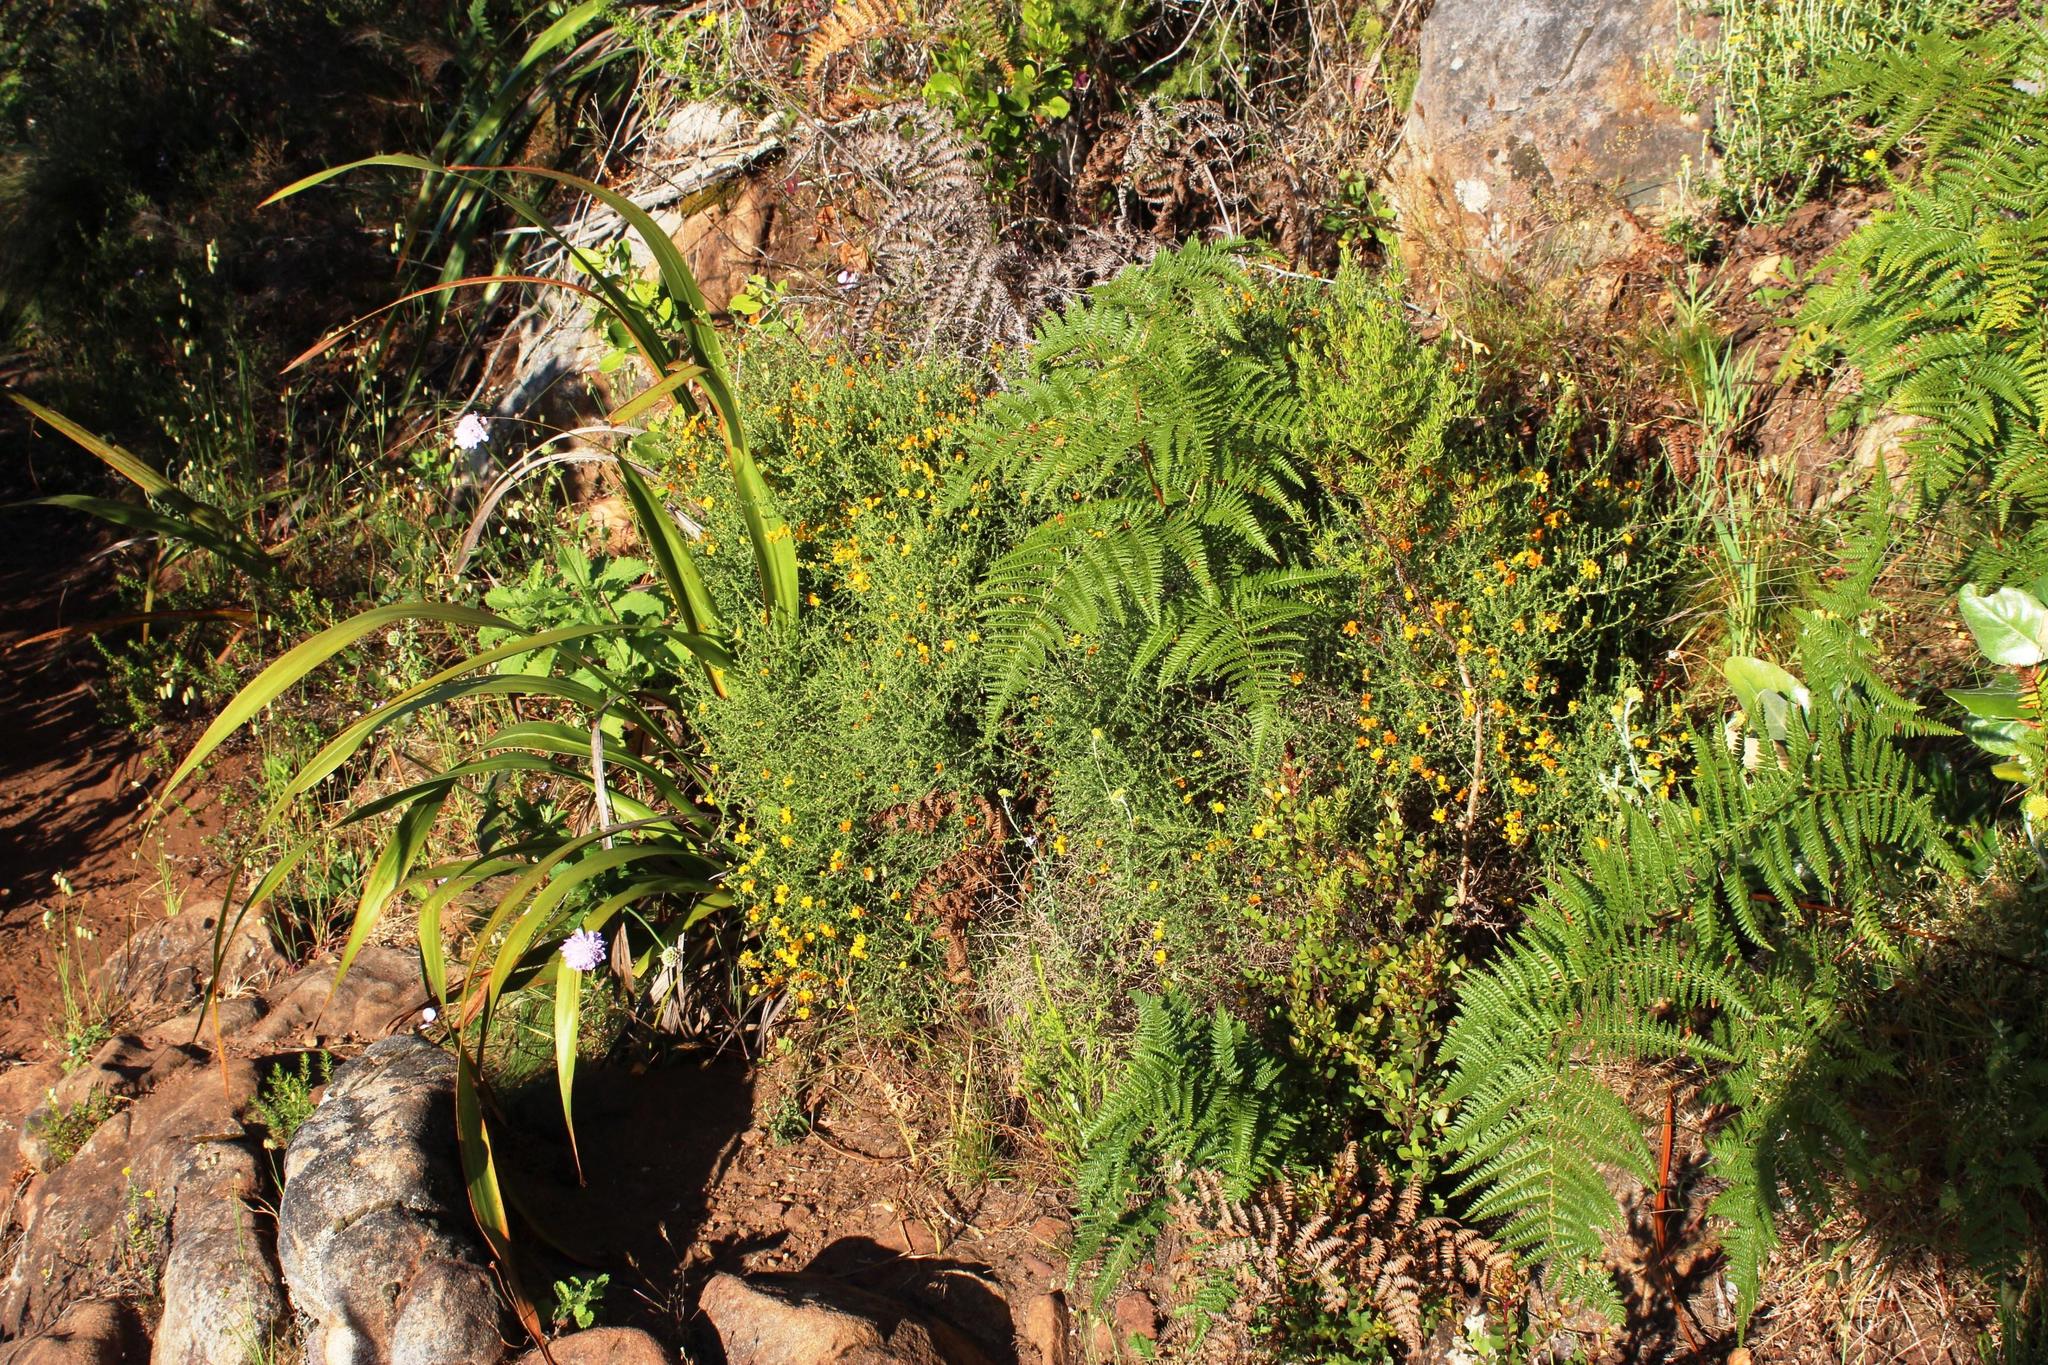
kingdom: Plantae
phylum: Tracheophyta
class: Magnoliopsida
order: Fabales
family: Fabaceae
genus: Aspalathus
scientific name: Aspalathus divaricata
